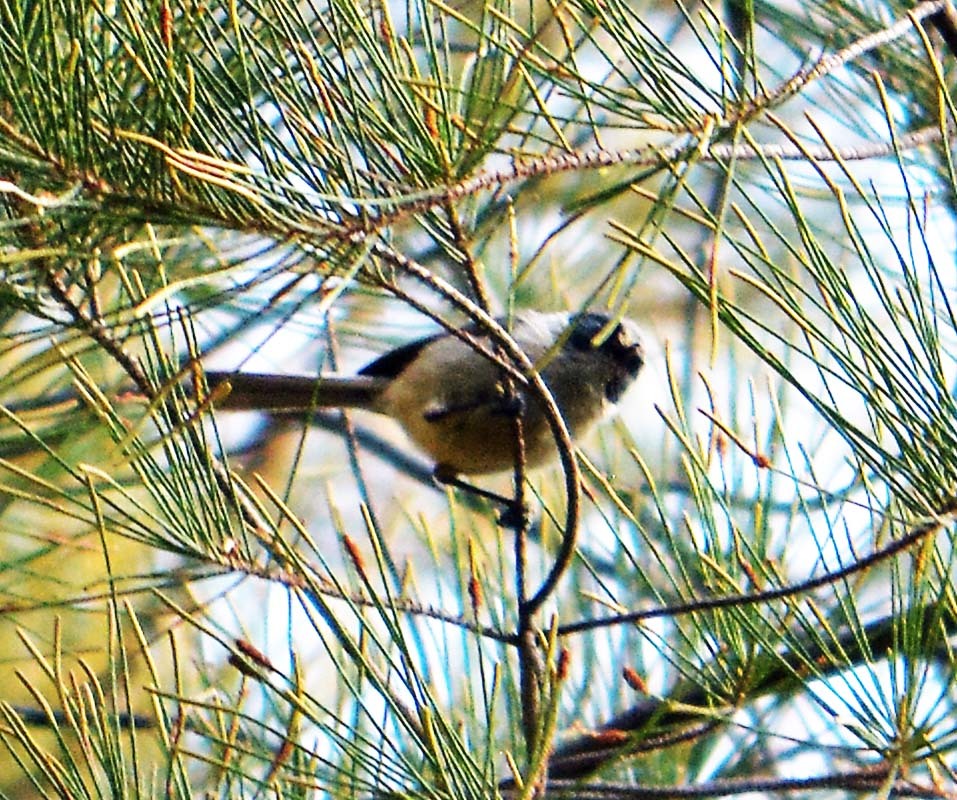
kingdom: Animalia
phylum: Chordata
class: Aves
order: Passeriformes
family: Aegithalidae
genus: Psaltriparus
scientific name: Psaltriparus minimus
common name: American bushtit
